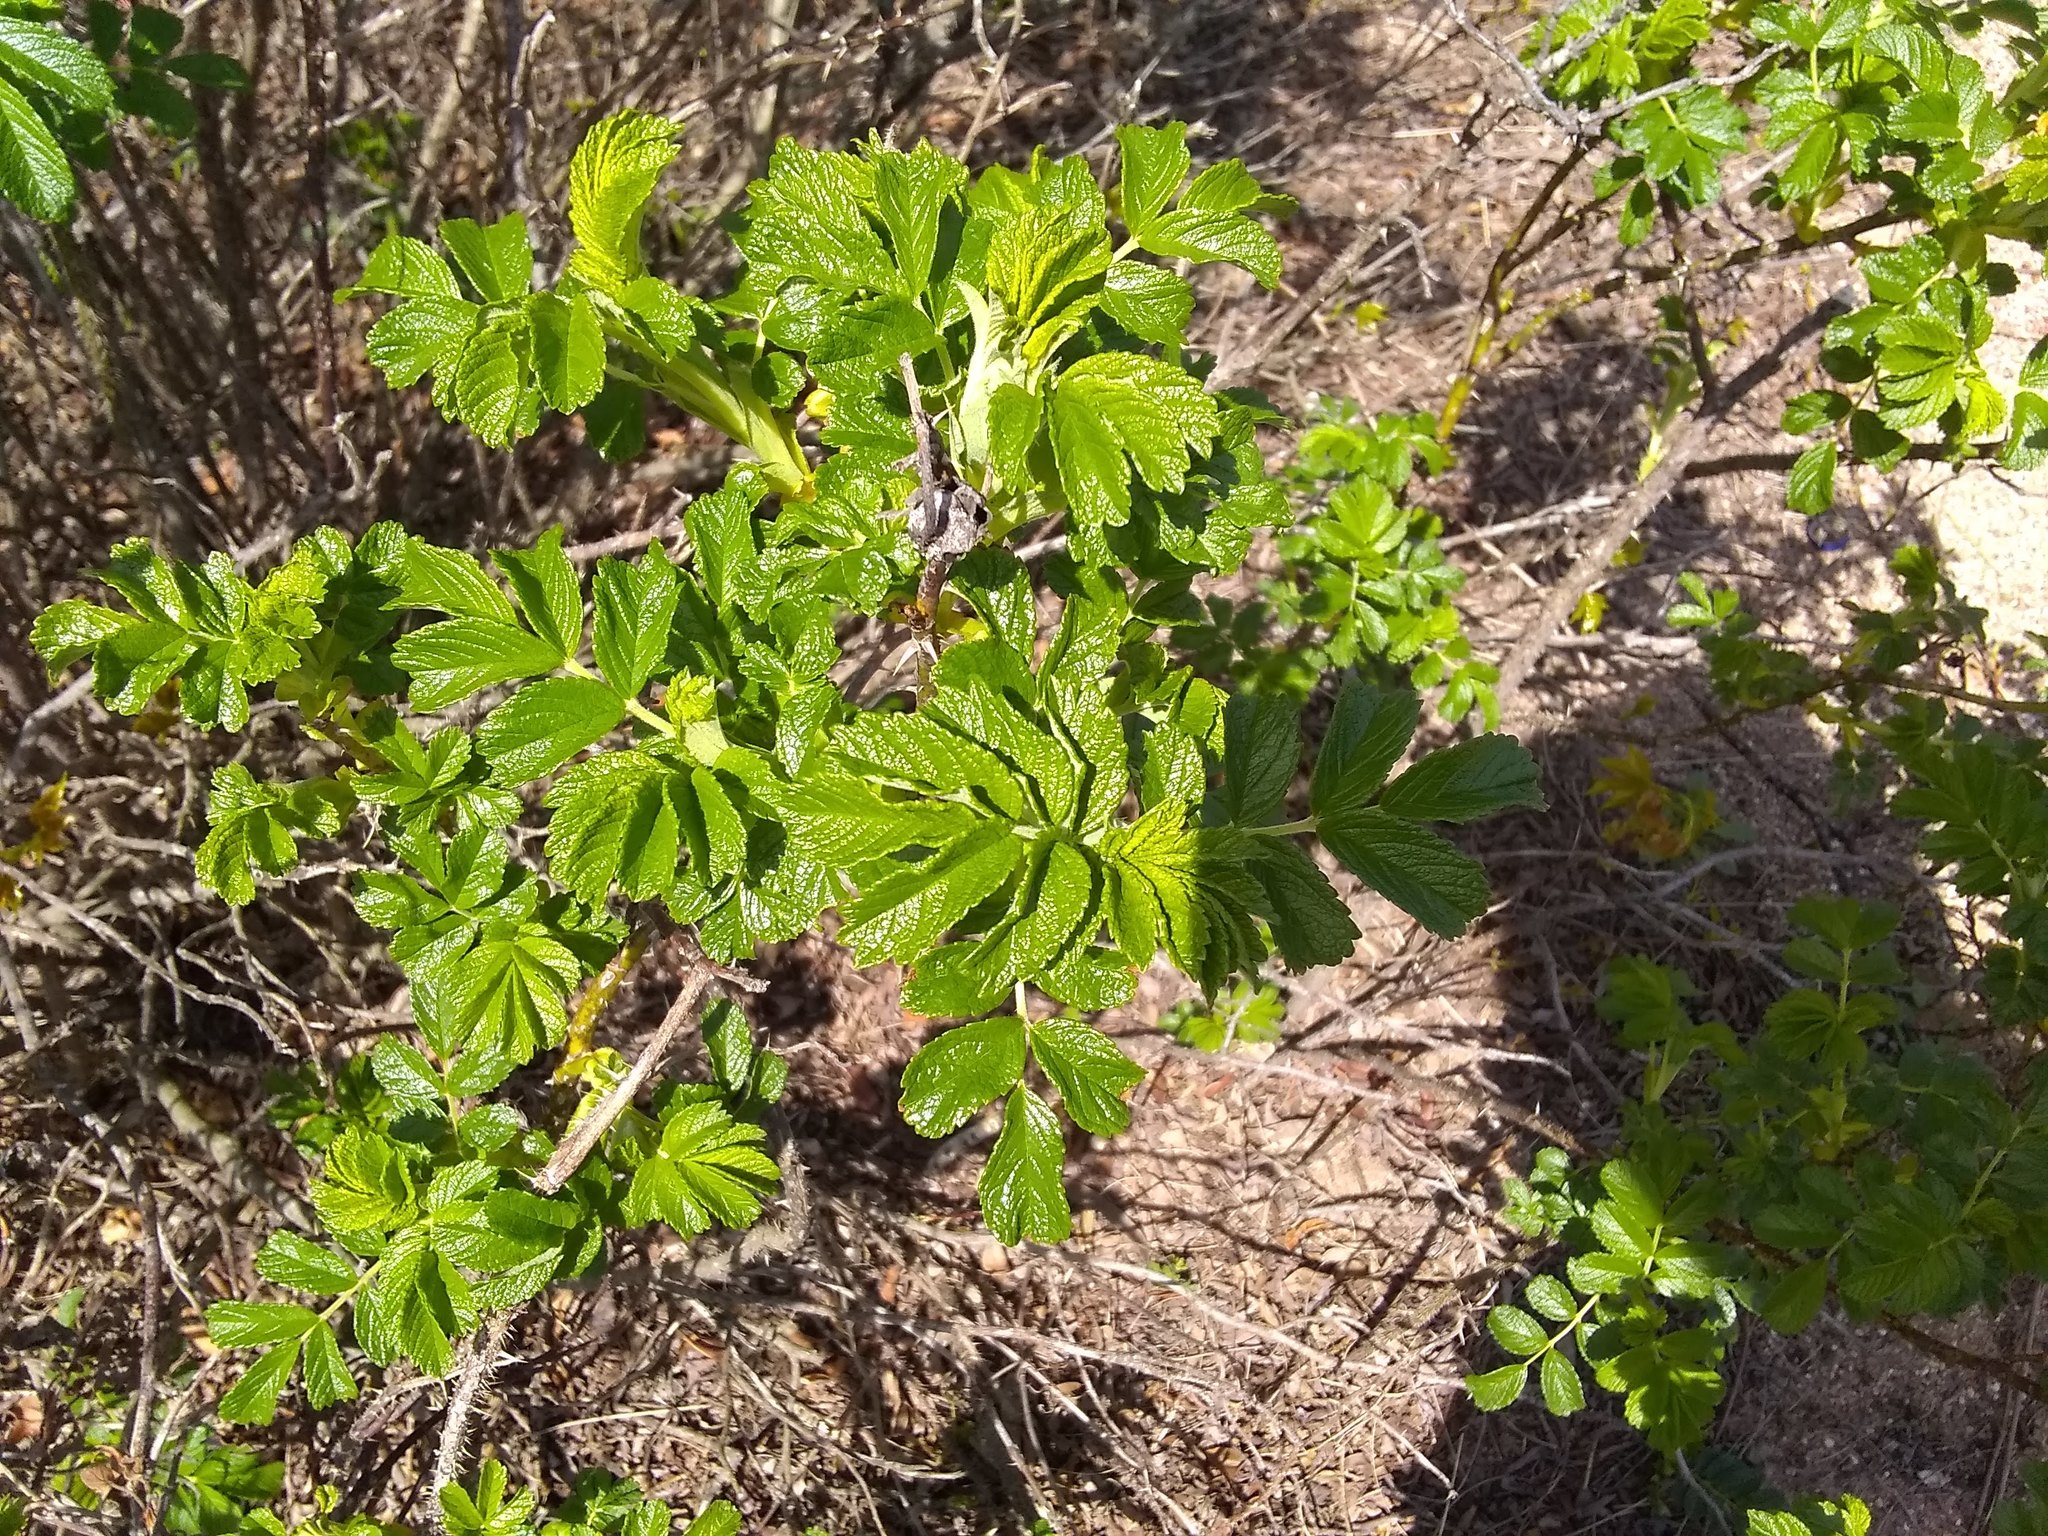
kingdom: Plantae
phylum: Tracheophyta
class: Magnoliopsida
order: Rosales
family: Rosaceae
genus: Rosa
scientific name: Rosa rugosa
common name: Japanese rose
